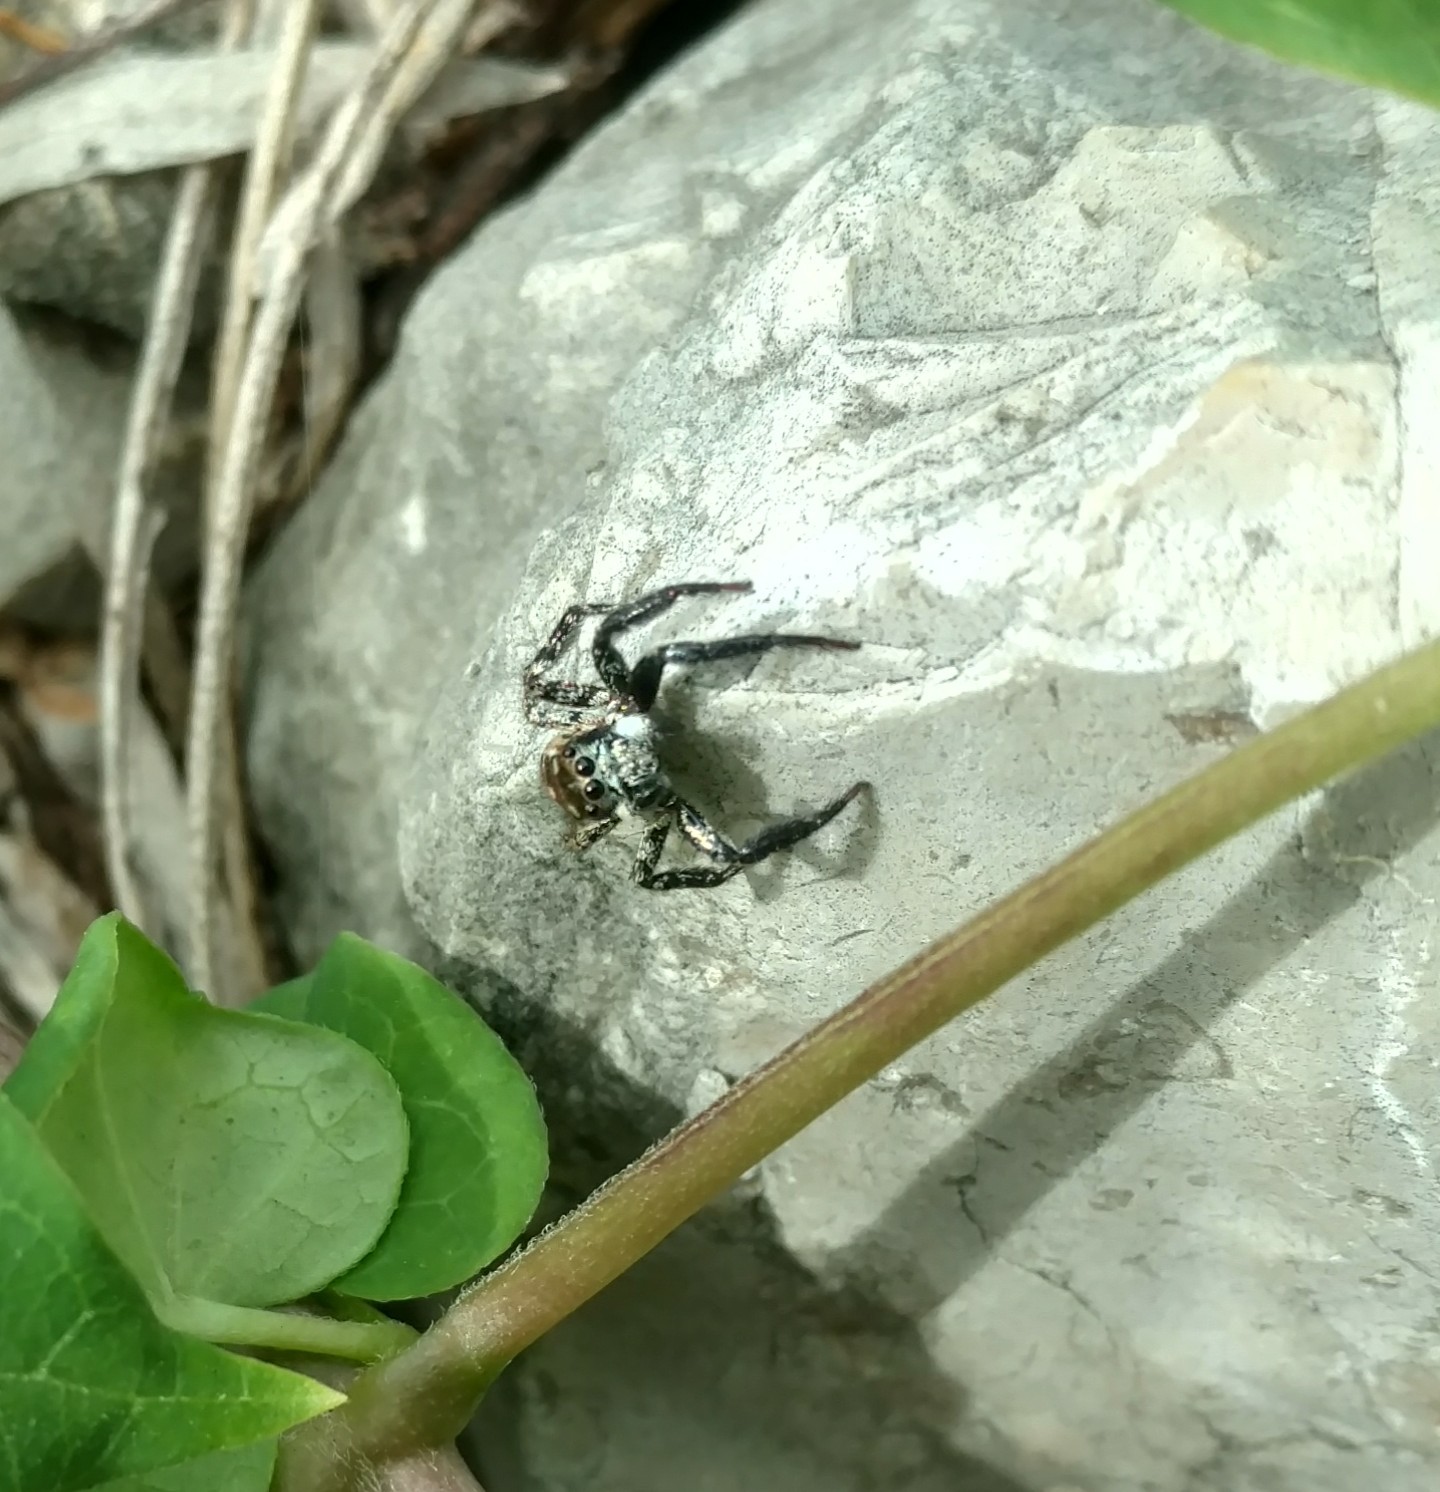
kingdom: Animalia
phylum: Arthropoda
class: Arachnida
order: Araneae
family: Salticidae
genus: Anasaitis
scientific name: Anasaitis canosa
